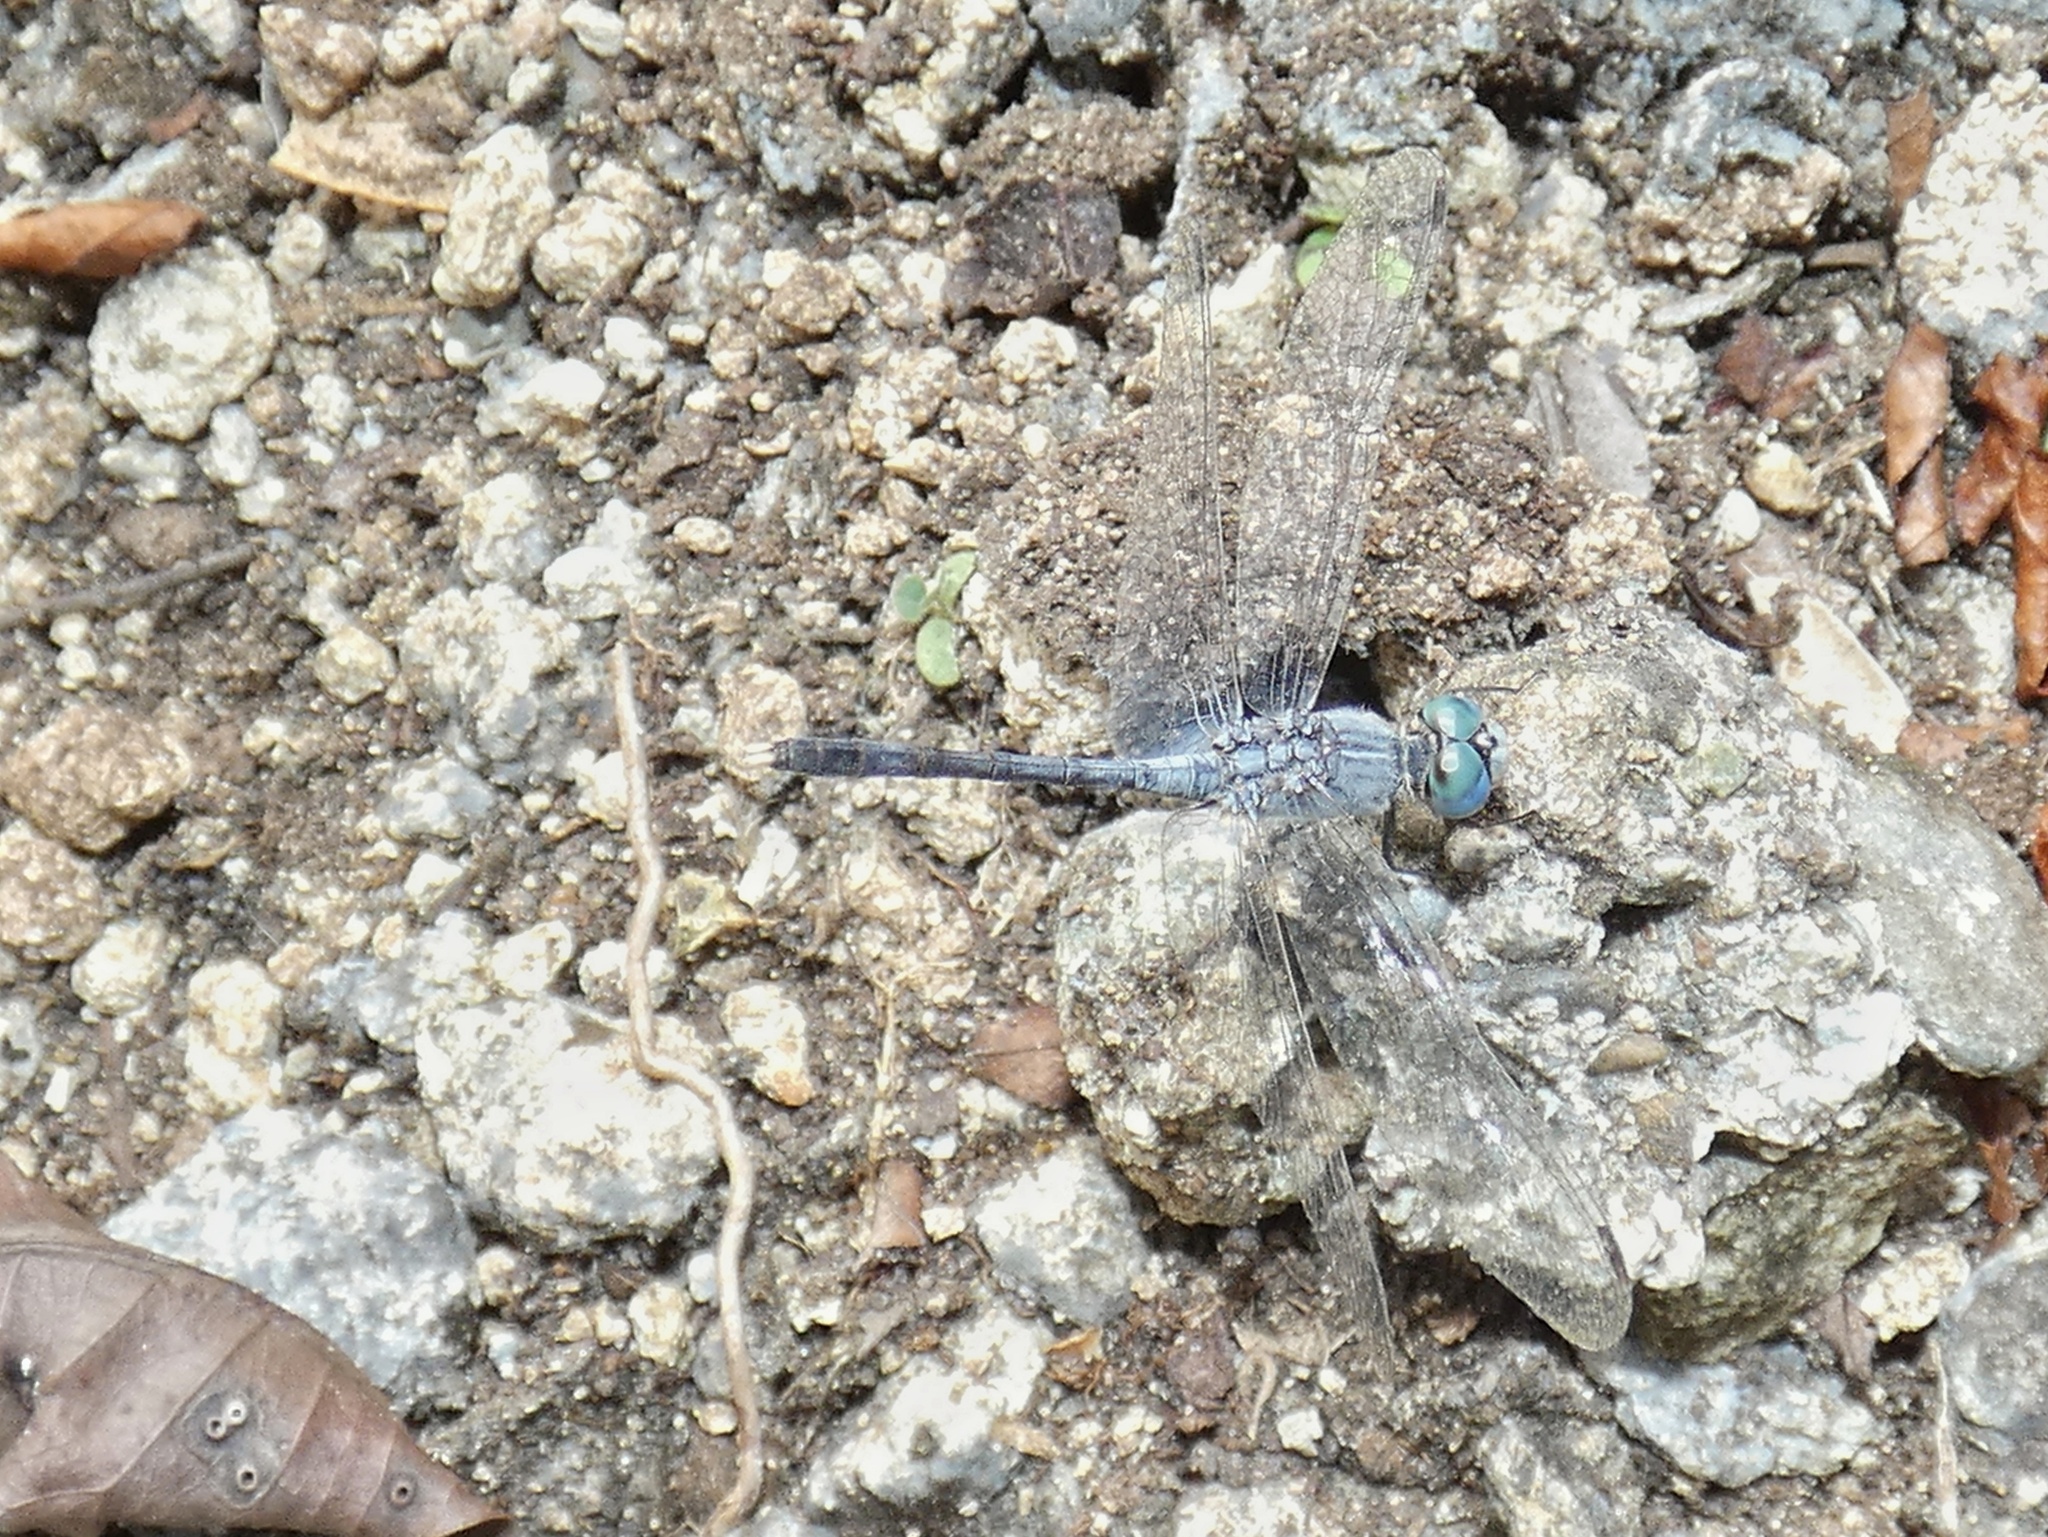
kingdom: Animalia
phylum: Arthropoda
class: Insecta
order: Odonata
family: Libellulidae
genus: Diplacodes
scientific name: Diplacodes trivialis
